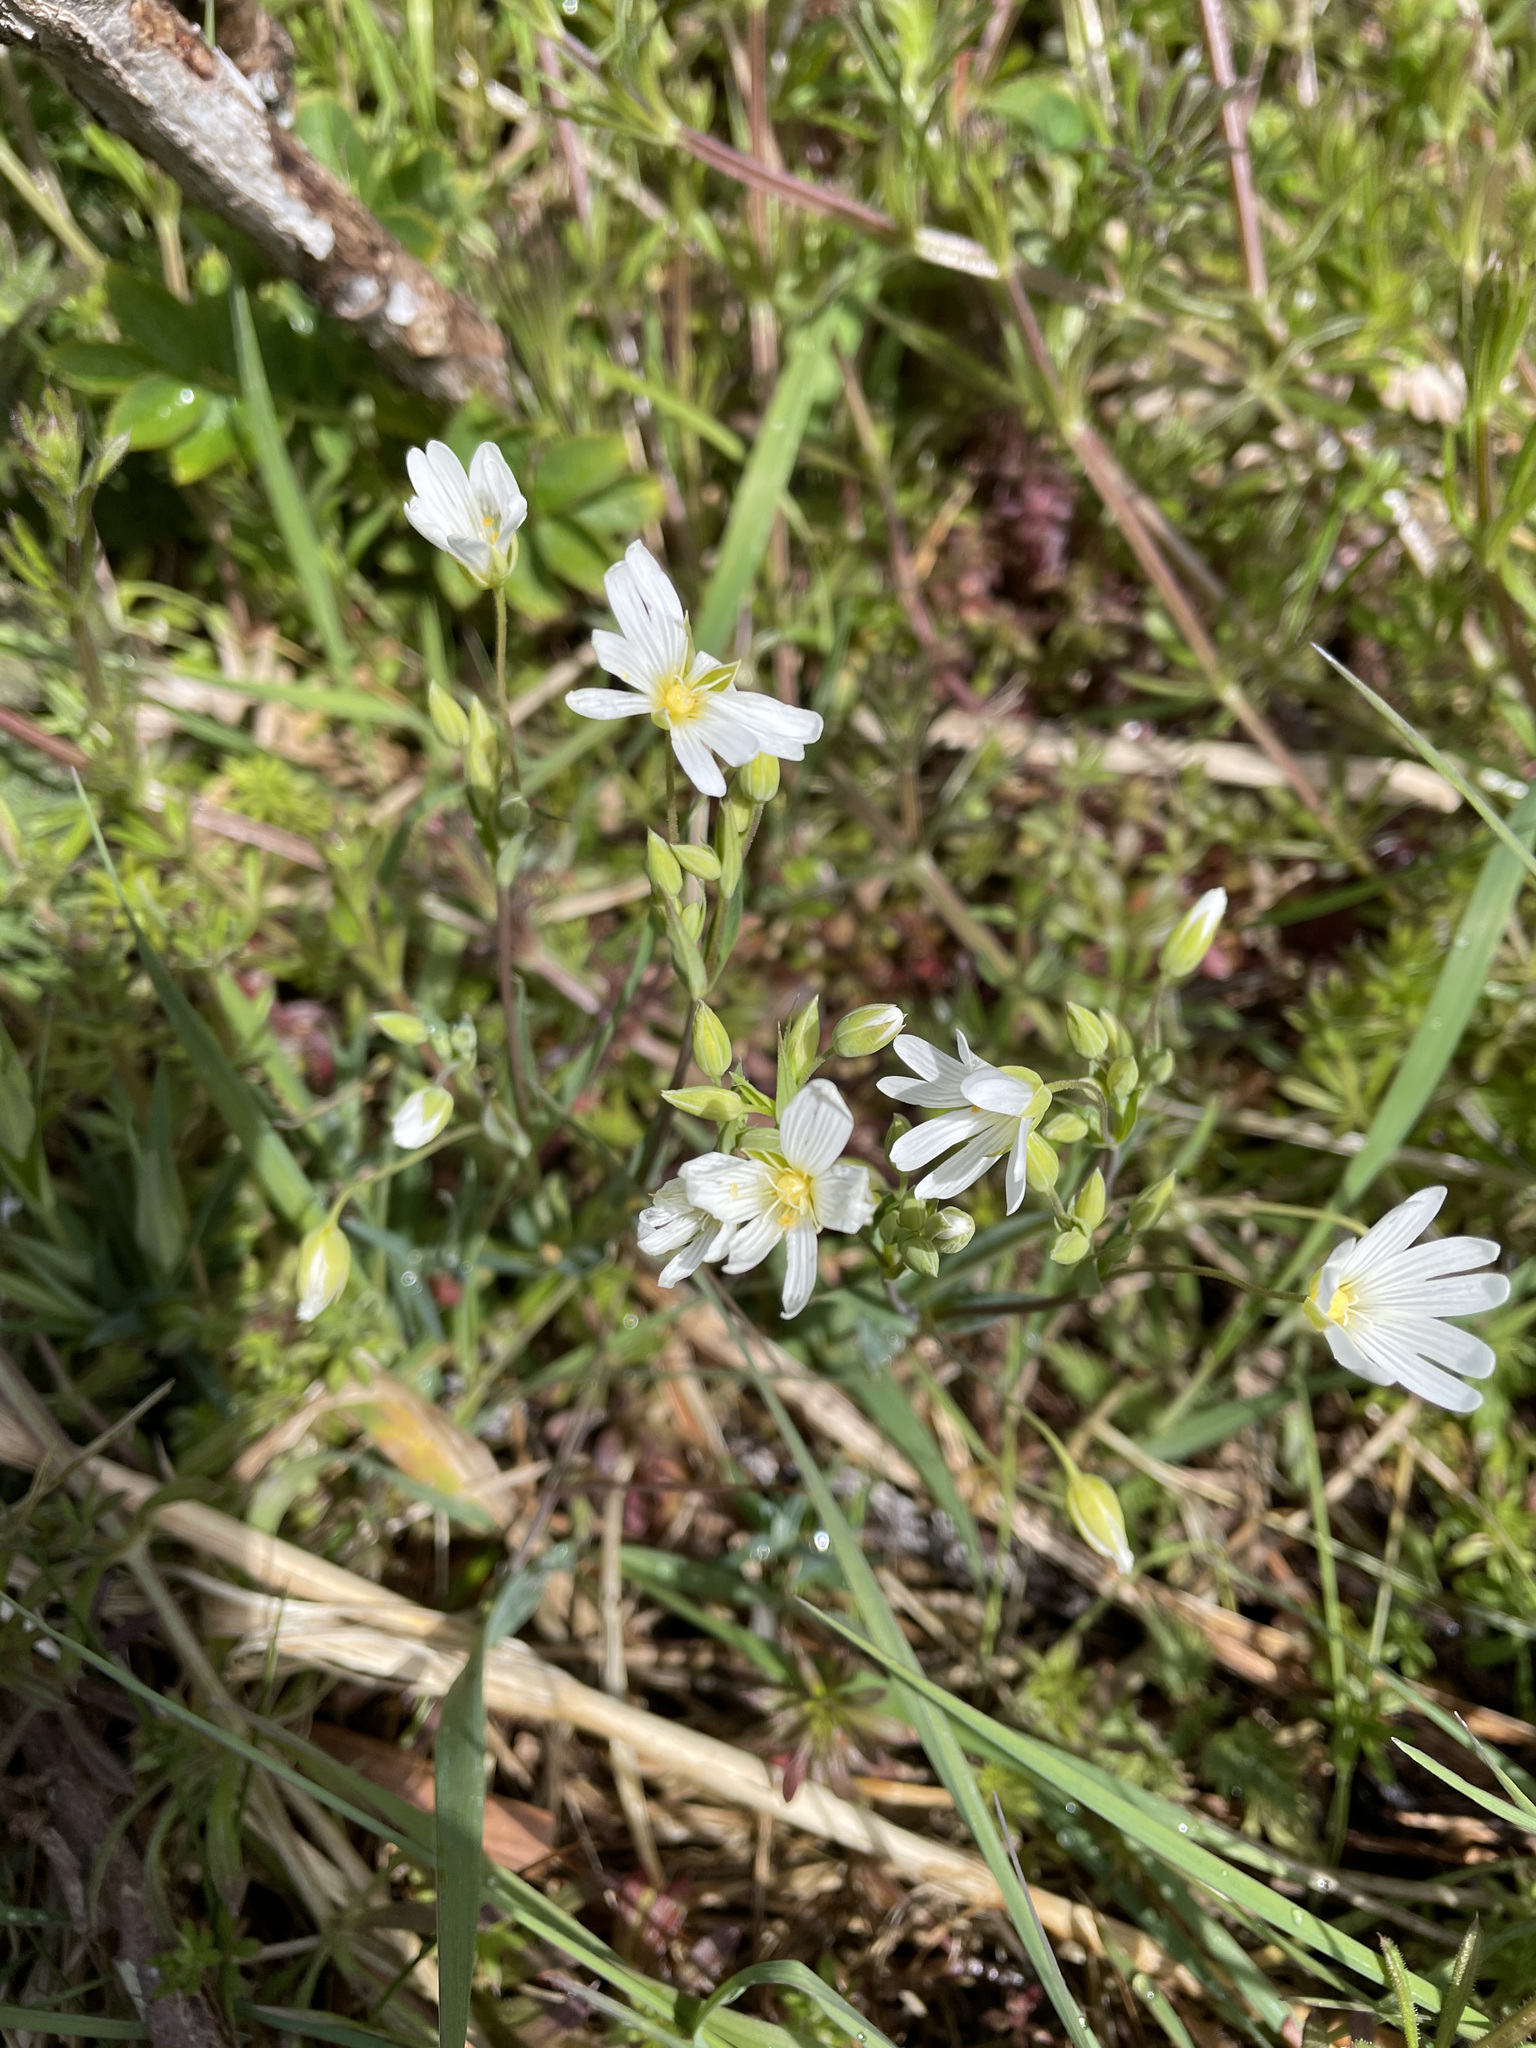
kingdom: Plantae
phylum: Tracheophyta
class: Magnoliopsida
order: Caryophyllales
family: Caryophyllaceae
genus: Rabelera
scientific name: Rabelera holostea
